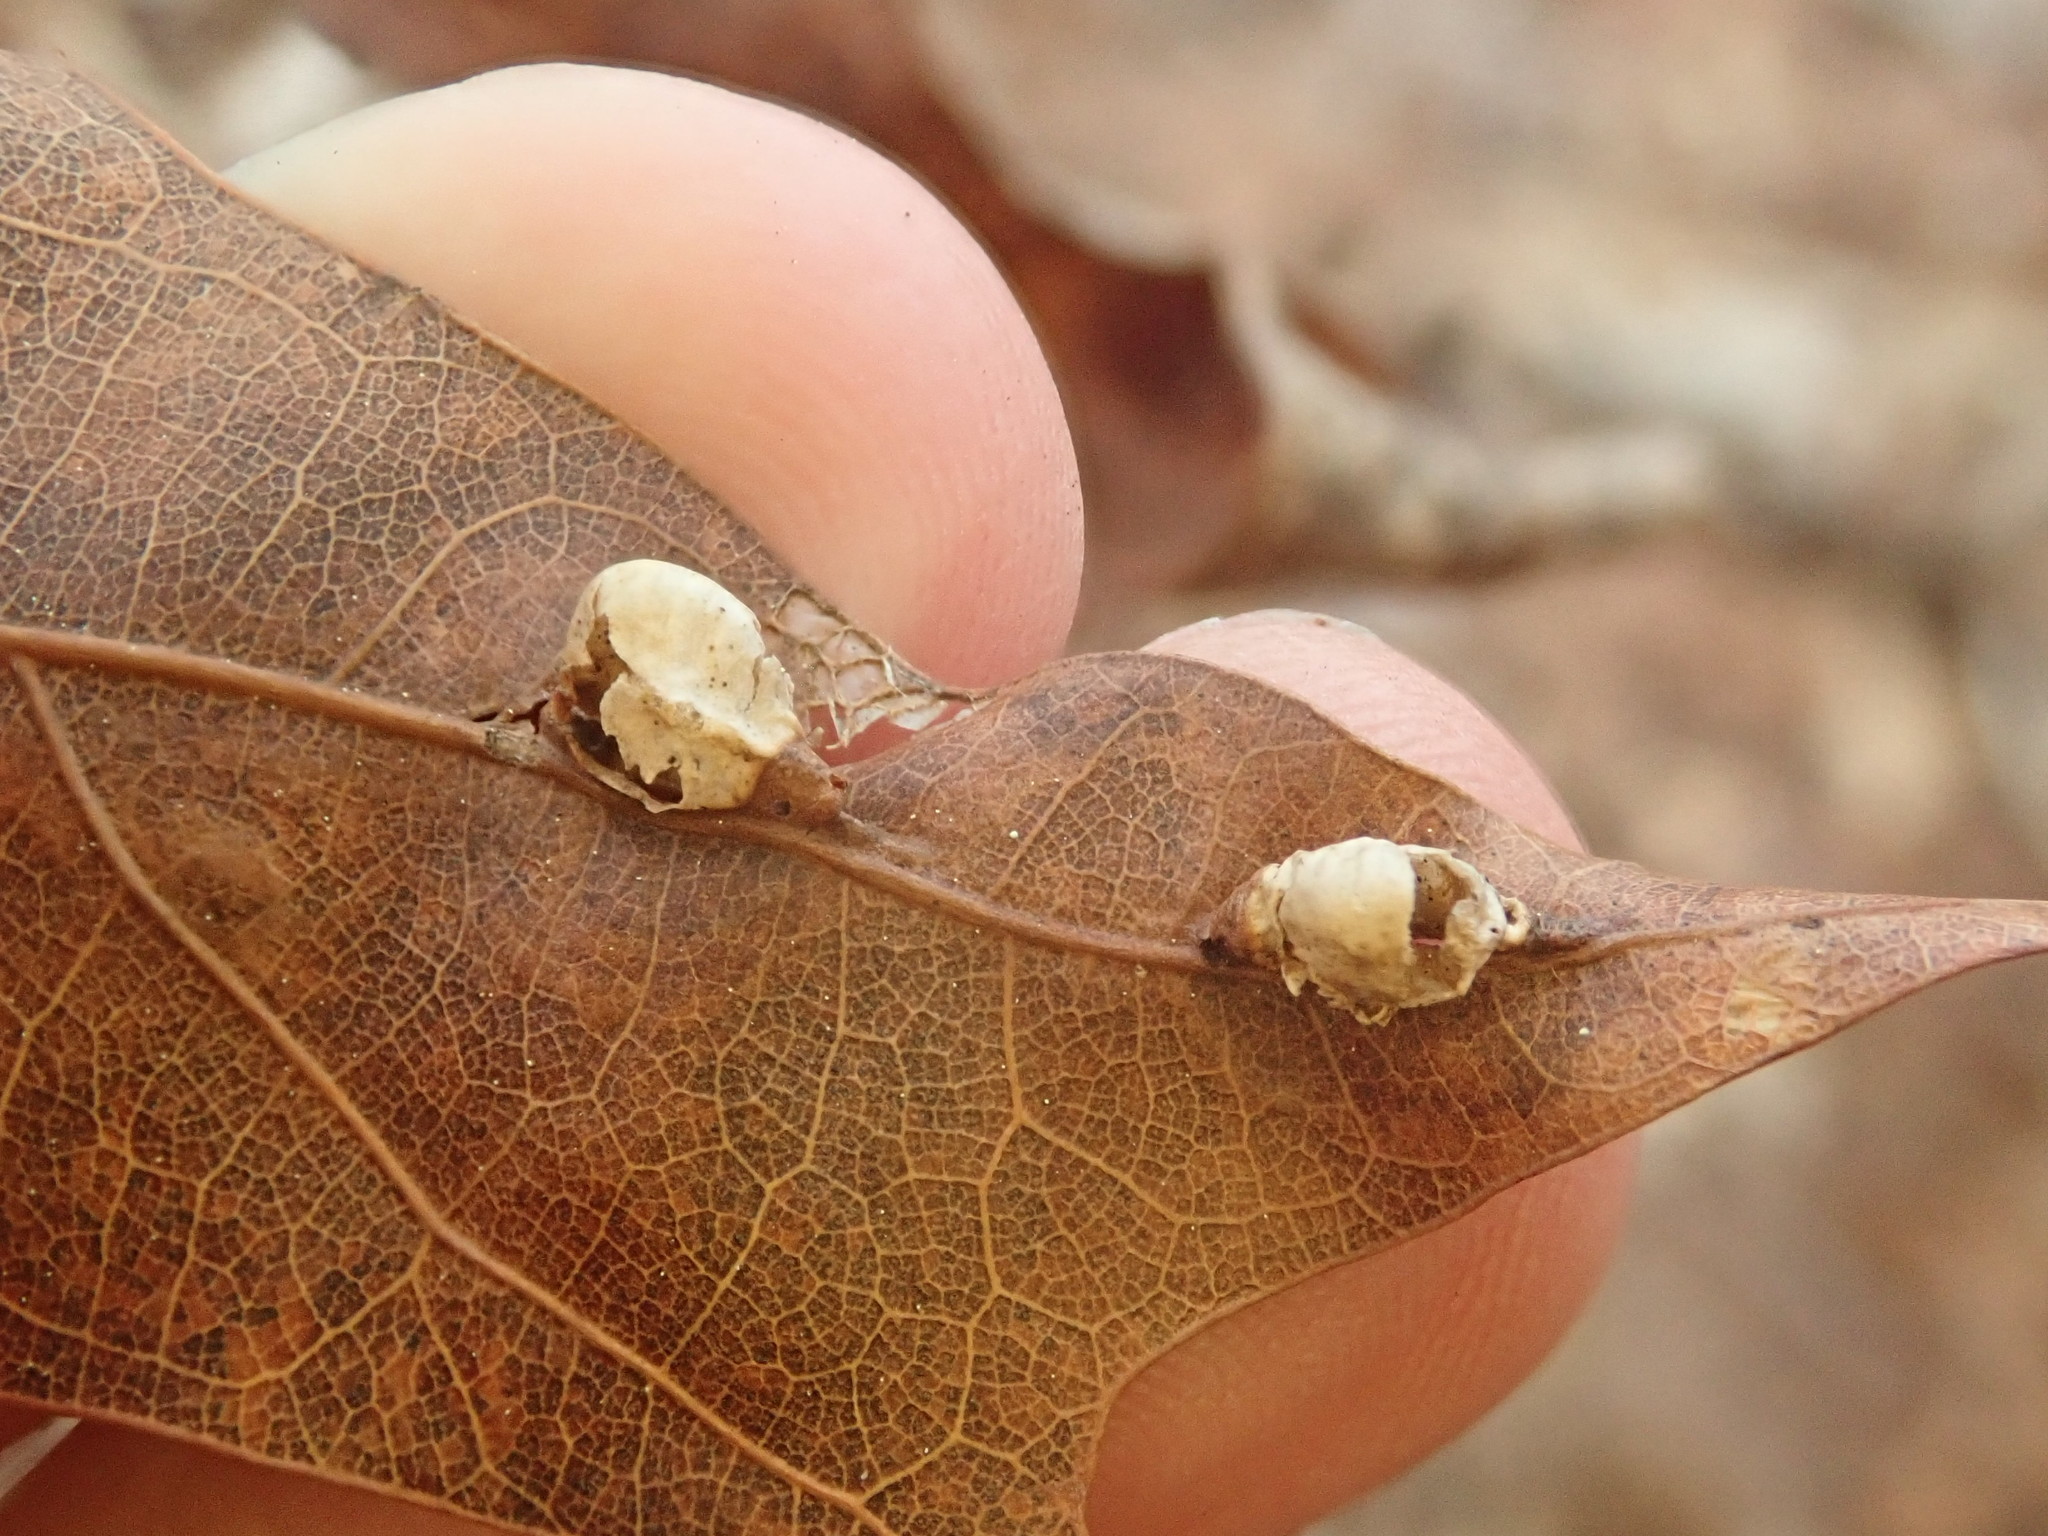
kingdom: Animalia
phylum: Arthropoda
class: Insecta
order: Diptera
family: Cecidomyiidae
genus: Macrodiplosis
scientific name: Macrodiplosis majalis
